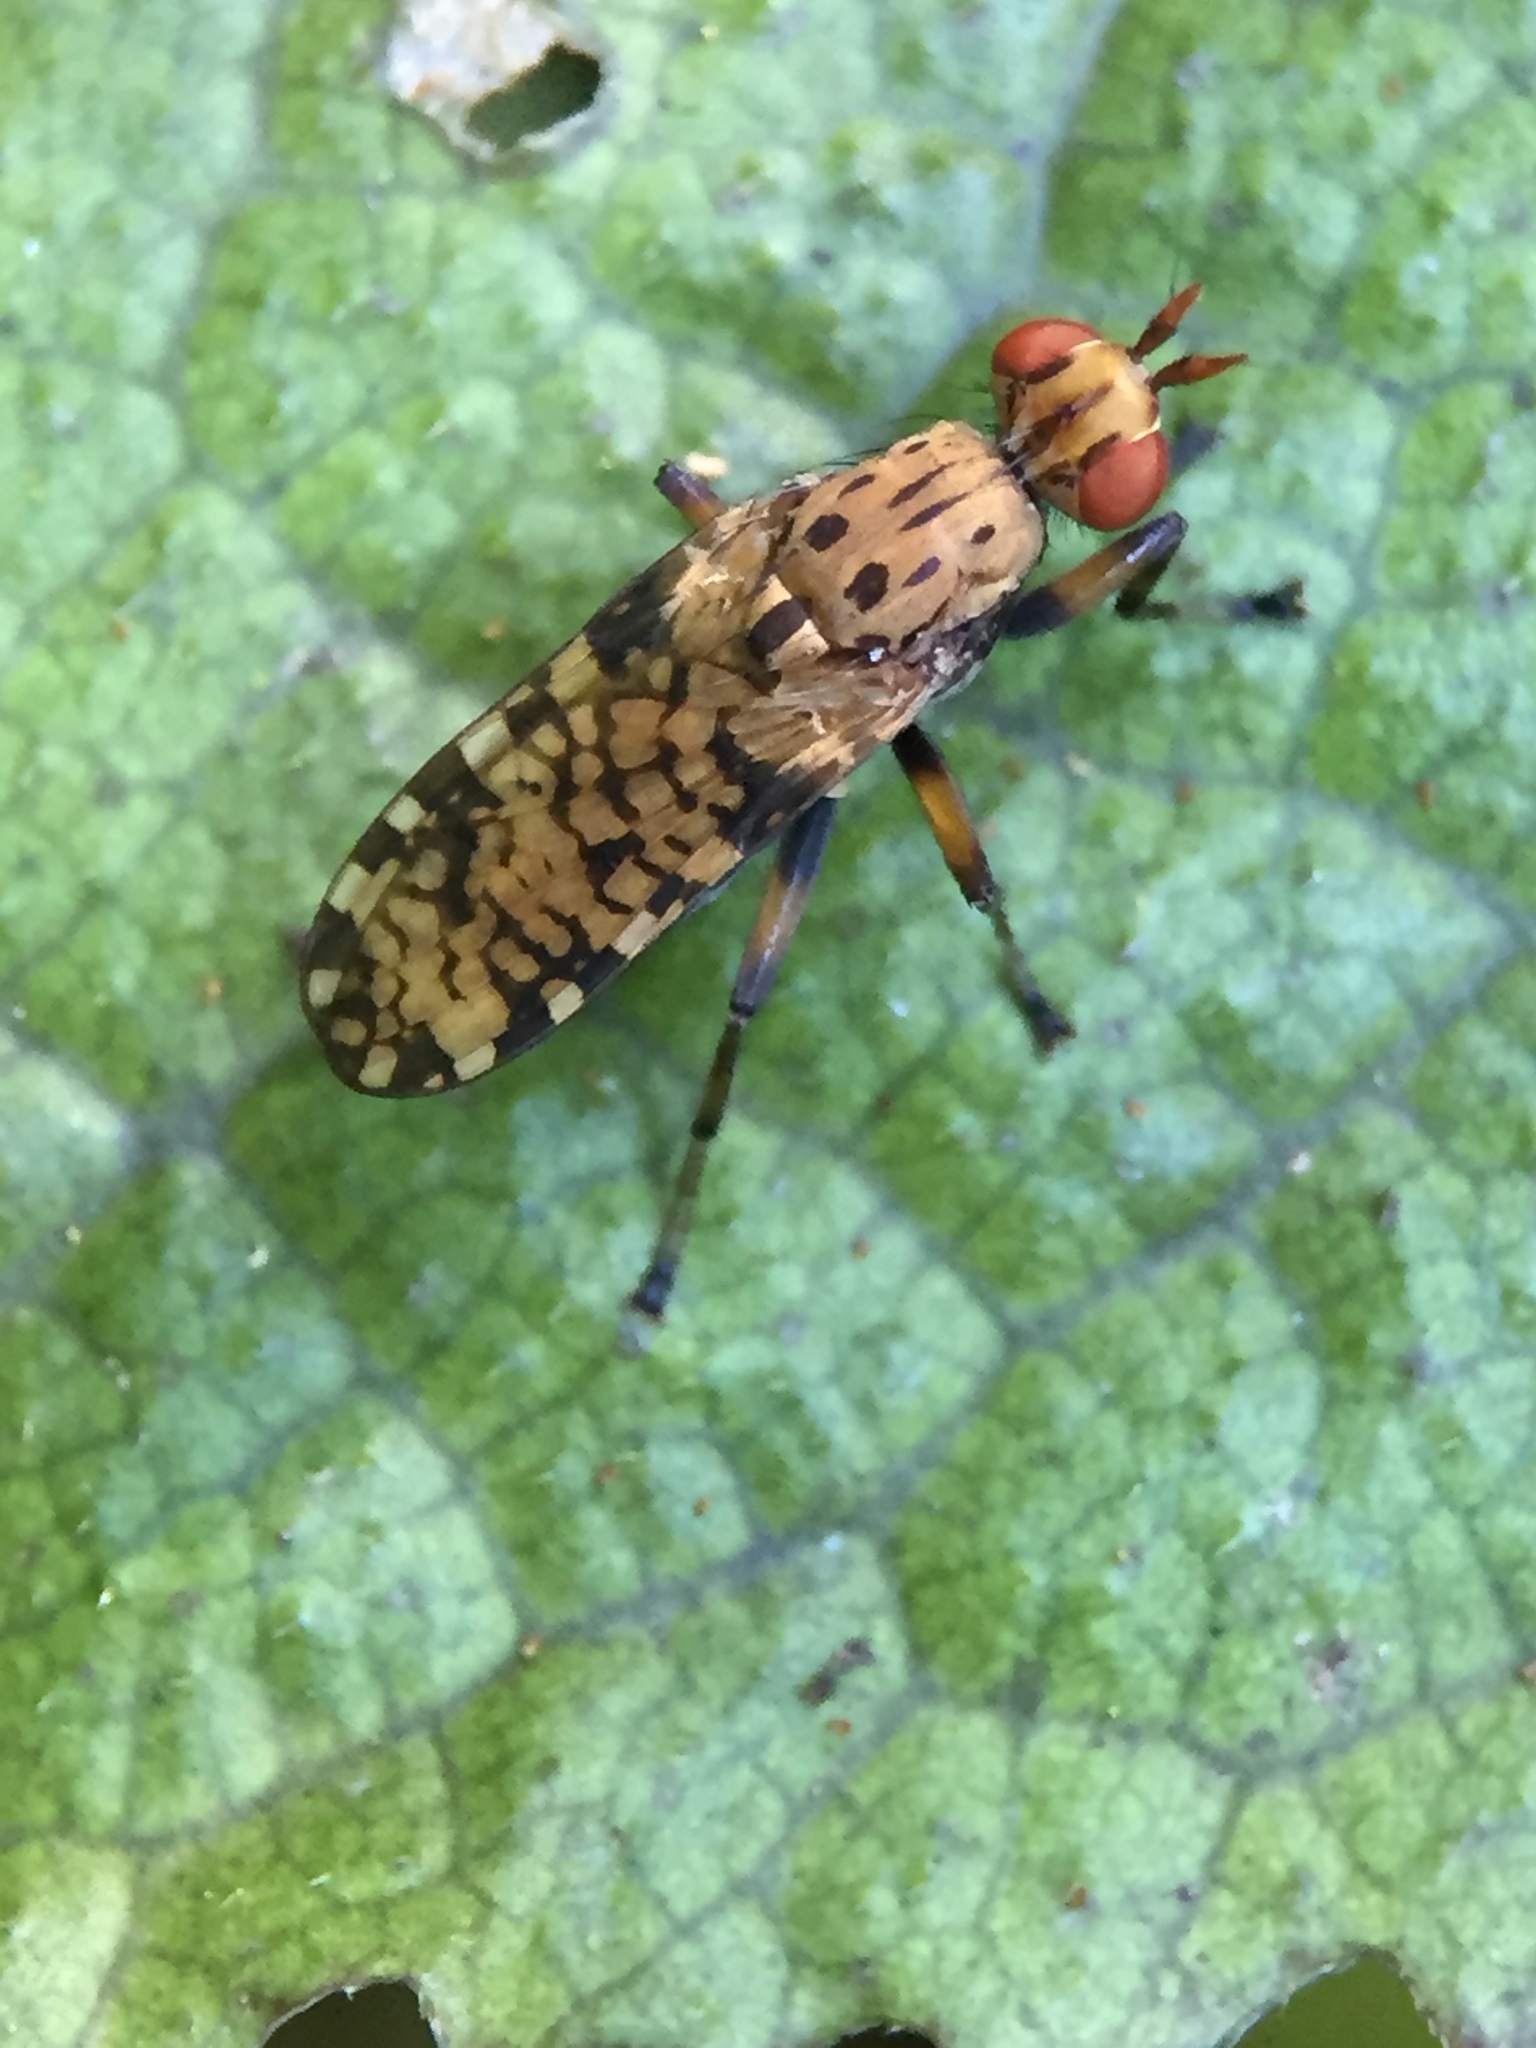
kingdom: Animalia
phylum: Arthropoda
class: Insecta
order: Diptera
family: Sciomyzidae
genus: Eulimnia
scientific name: Eulimnia milleri
